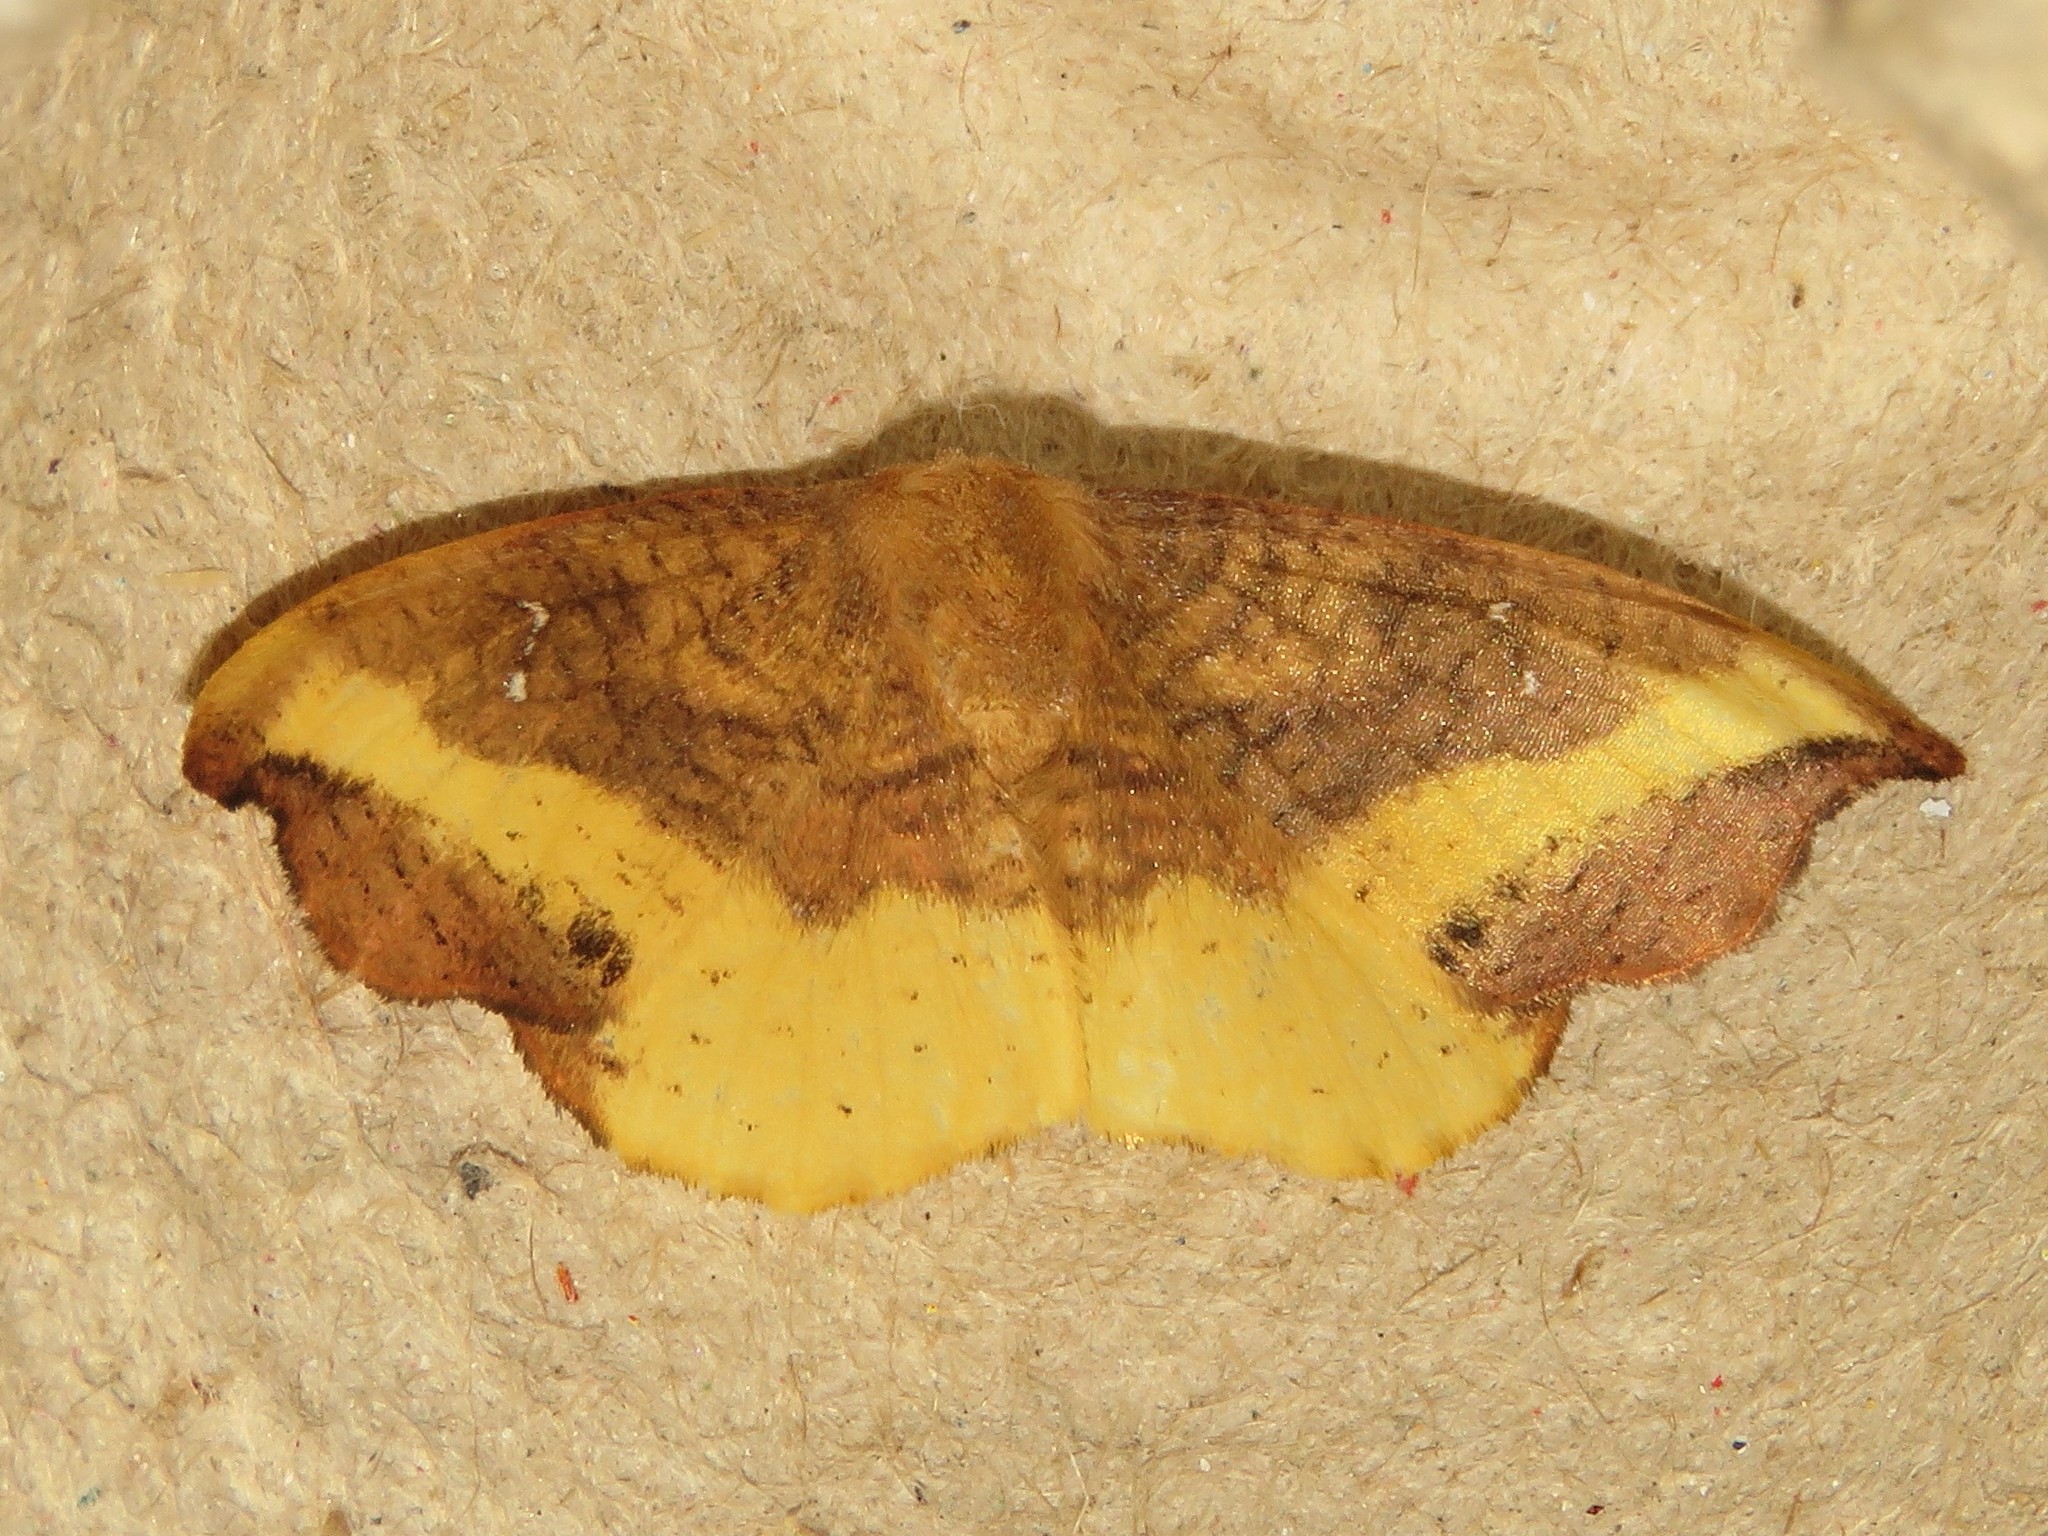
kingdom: Animalia
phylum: Arthropoda
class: Insecta
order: Lepidoptera
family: Drepanidae
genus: Oreta
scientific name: Oreta rosea
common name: Rose hooktip
